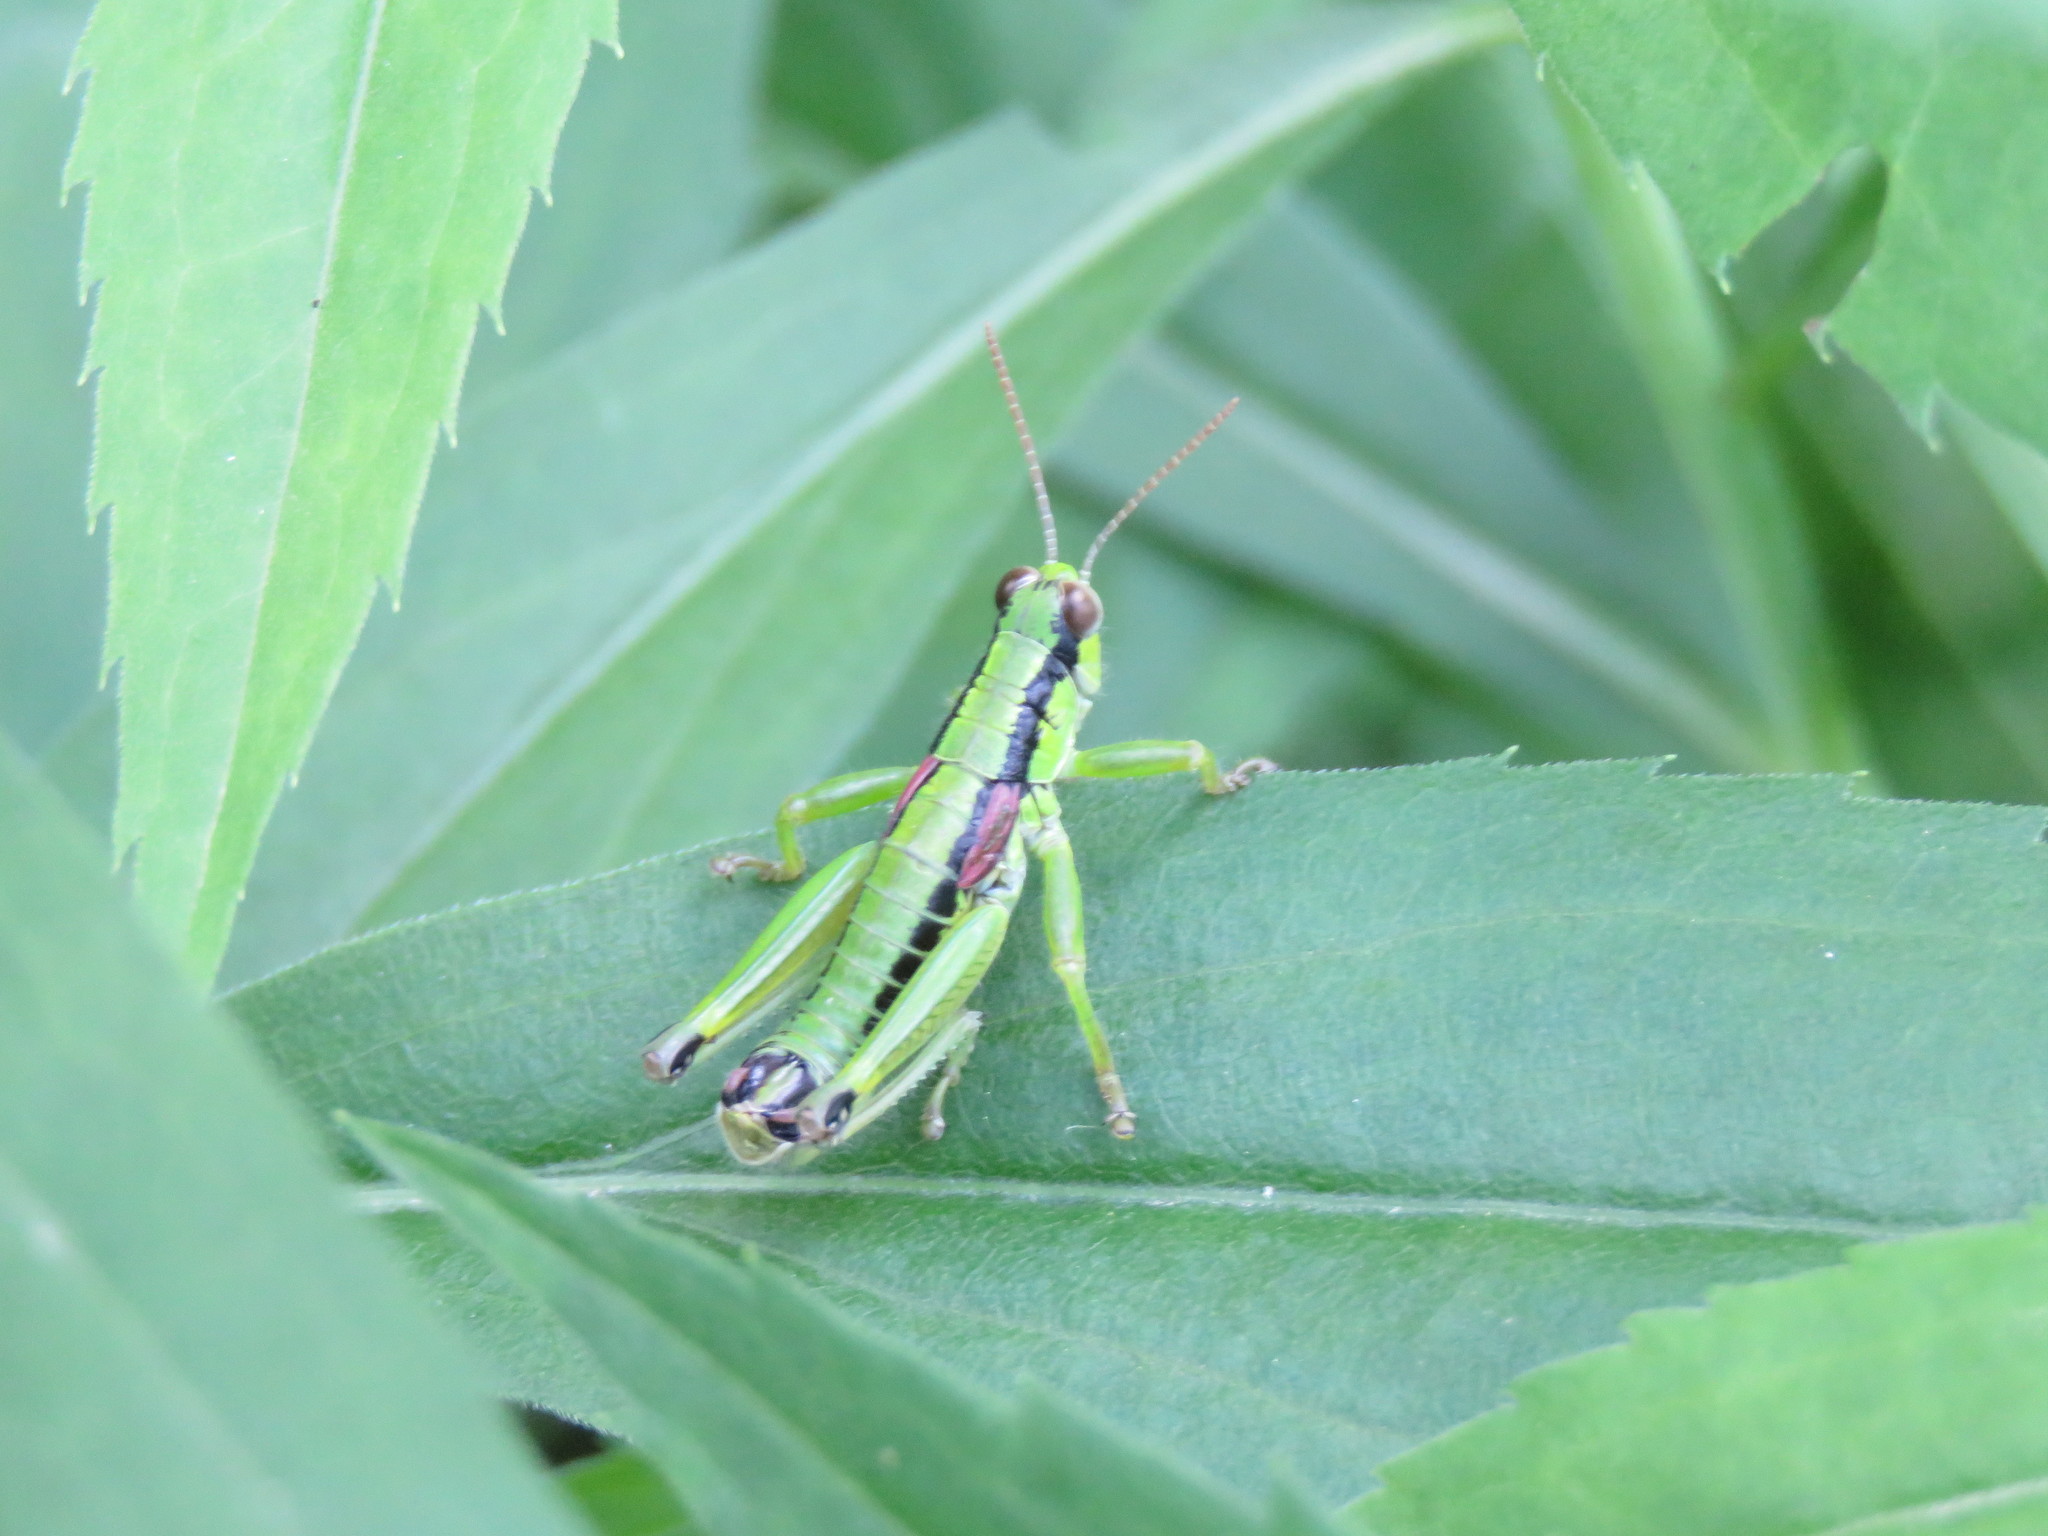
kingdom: Animalia
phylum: Arthropoda
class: Insecta
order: Orthoptera
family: Acrididae
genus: Odontopodisma
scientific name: Odontopodisma schmidtii
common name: Schmidt's mountain grasshopper
